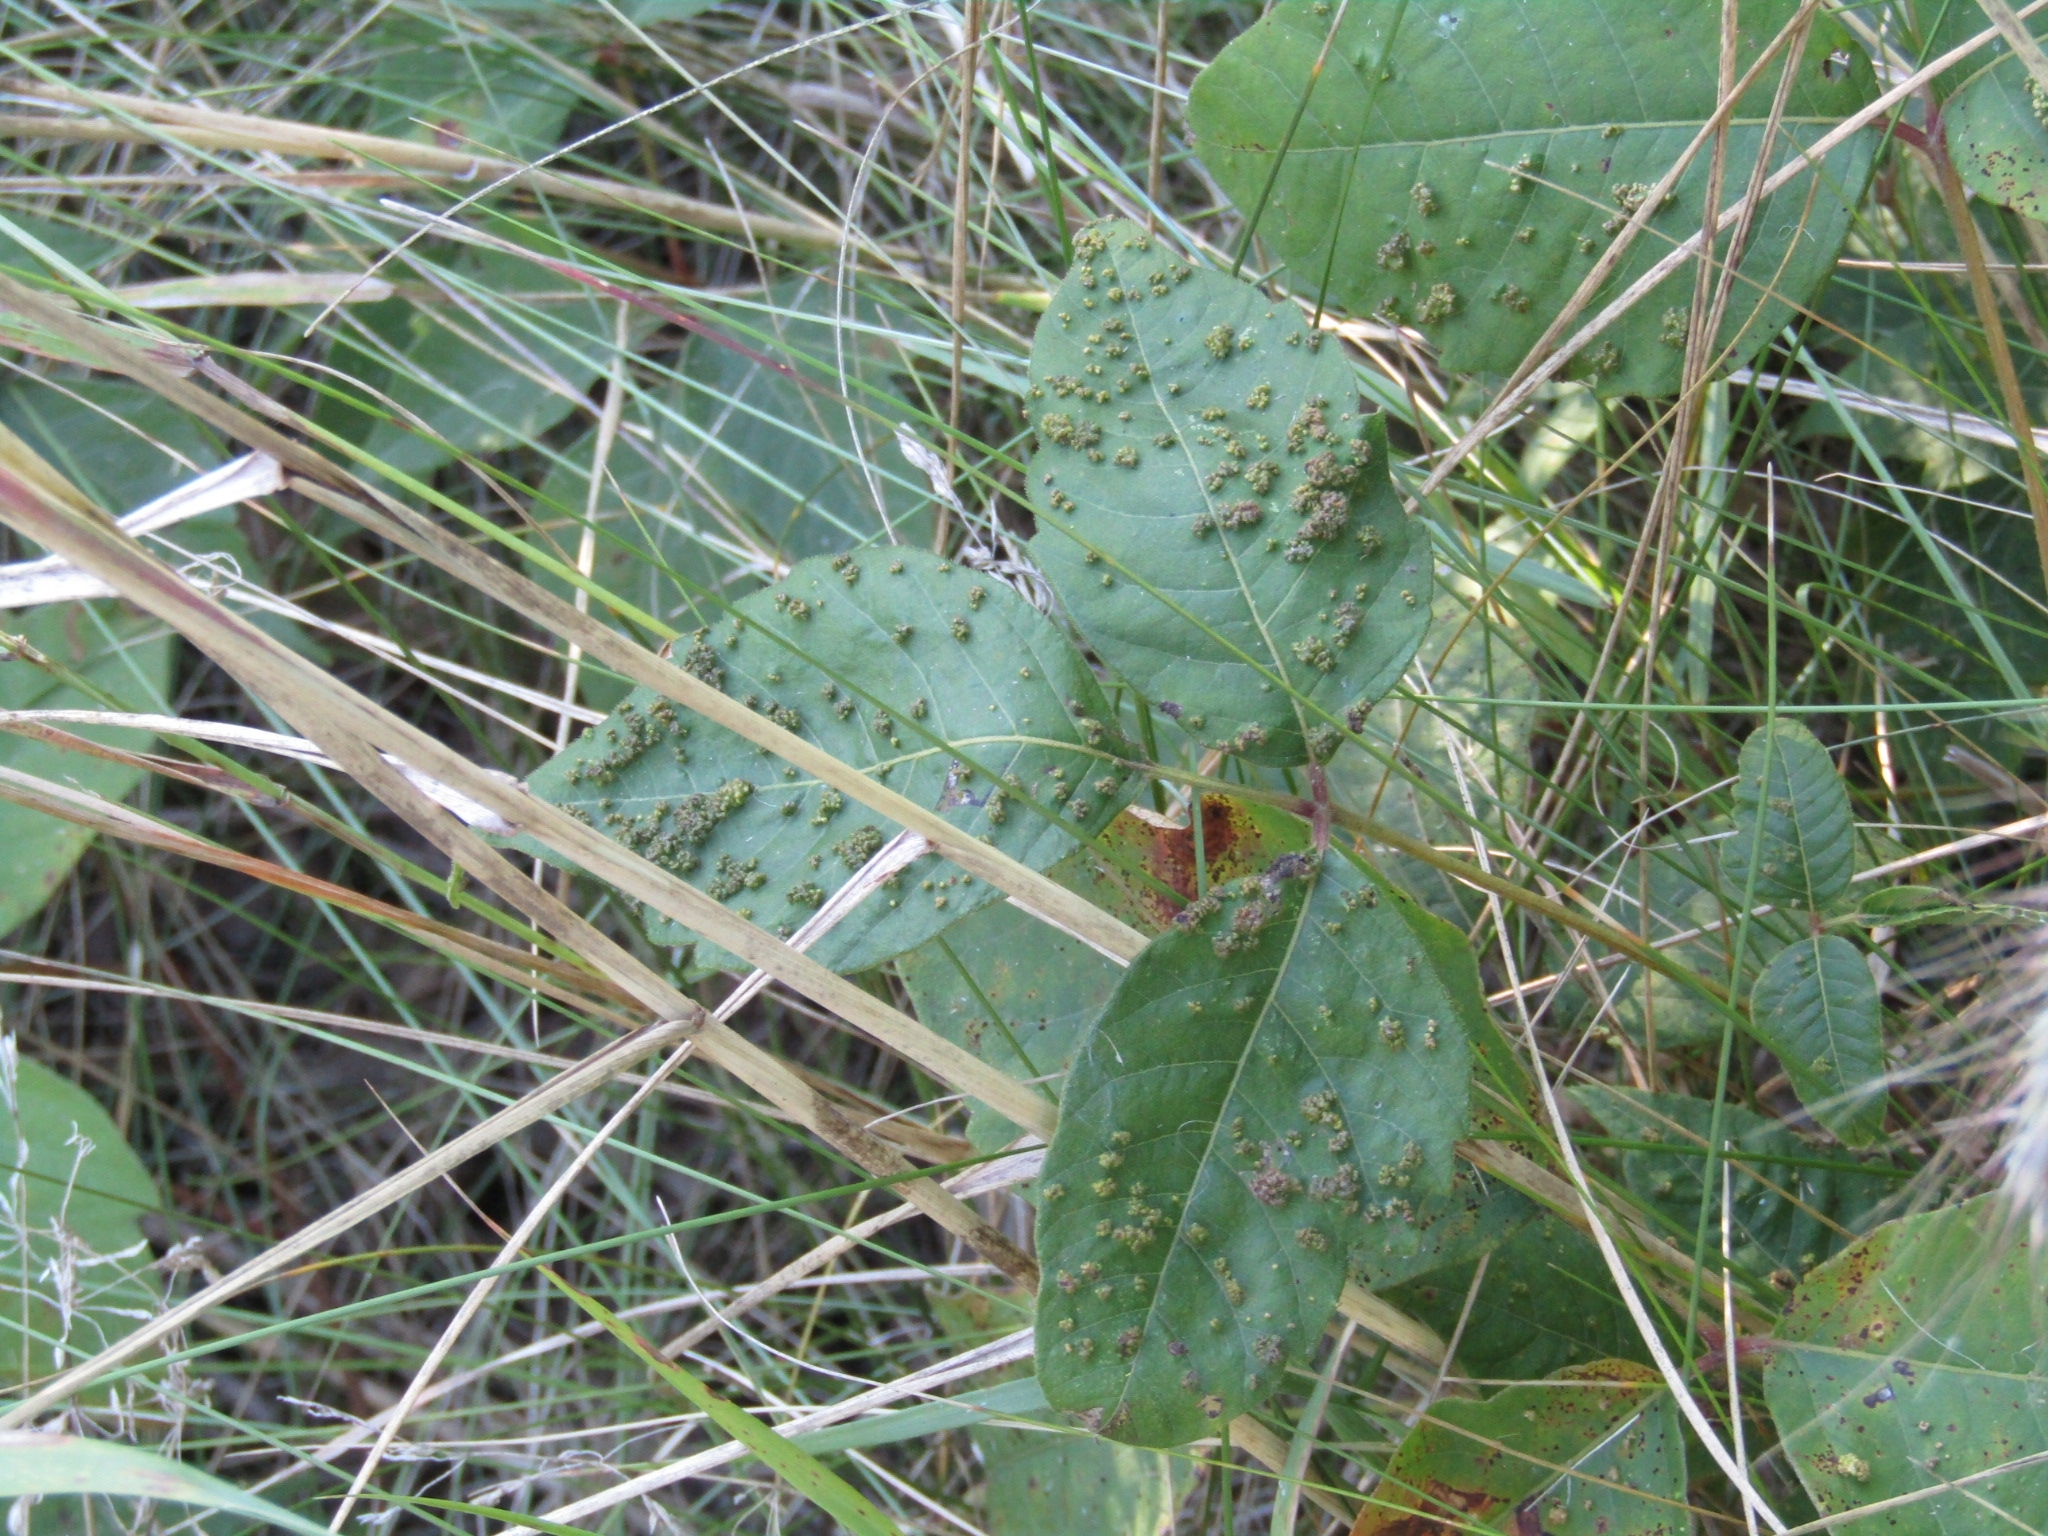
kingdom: Animalia
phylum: Arthropoda
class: Arachnida
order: Trombidiformes
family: Eriophyidae
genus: Aculops
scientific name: Aculops
